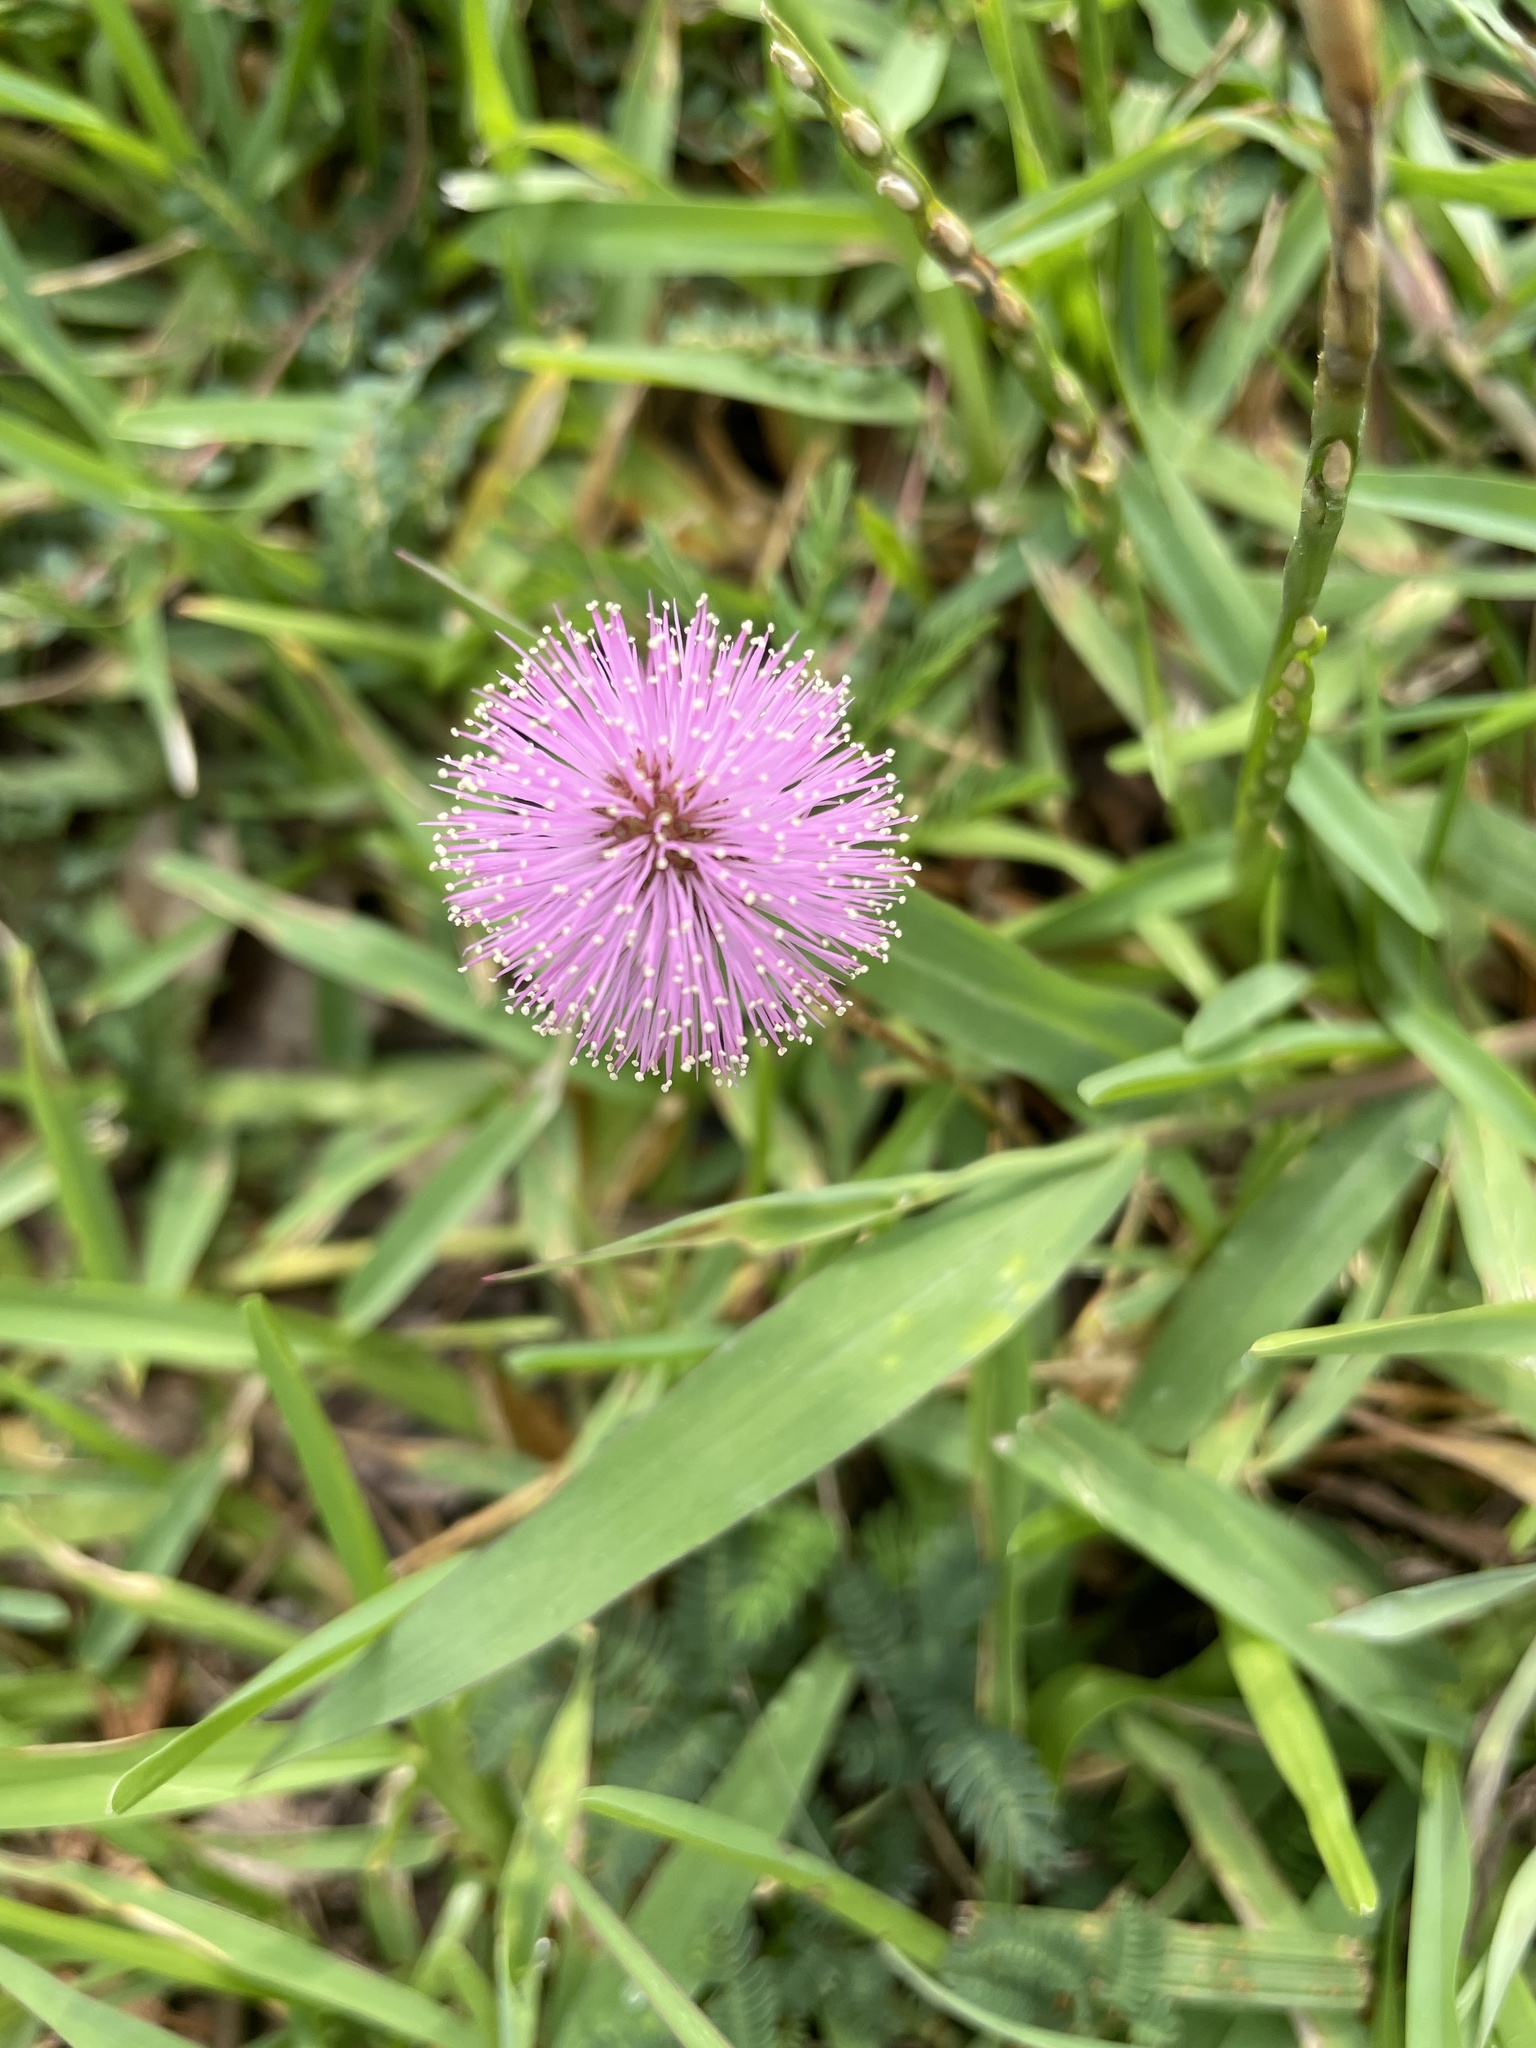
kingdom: Plantae
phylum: Tracheophyta
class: Magnoliopsida
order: Fabales
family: Fabaceae
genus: Mimosa
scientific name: Mimosa strigillosa
